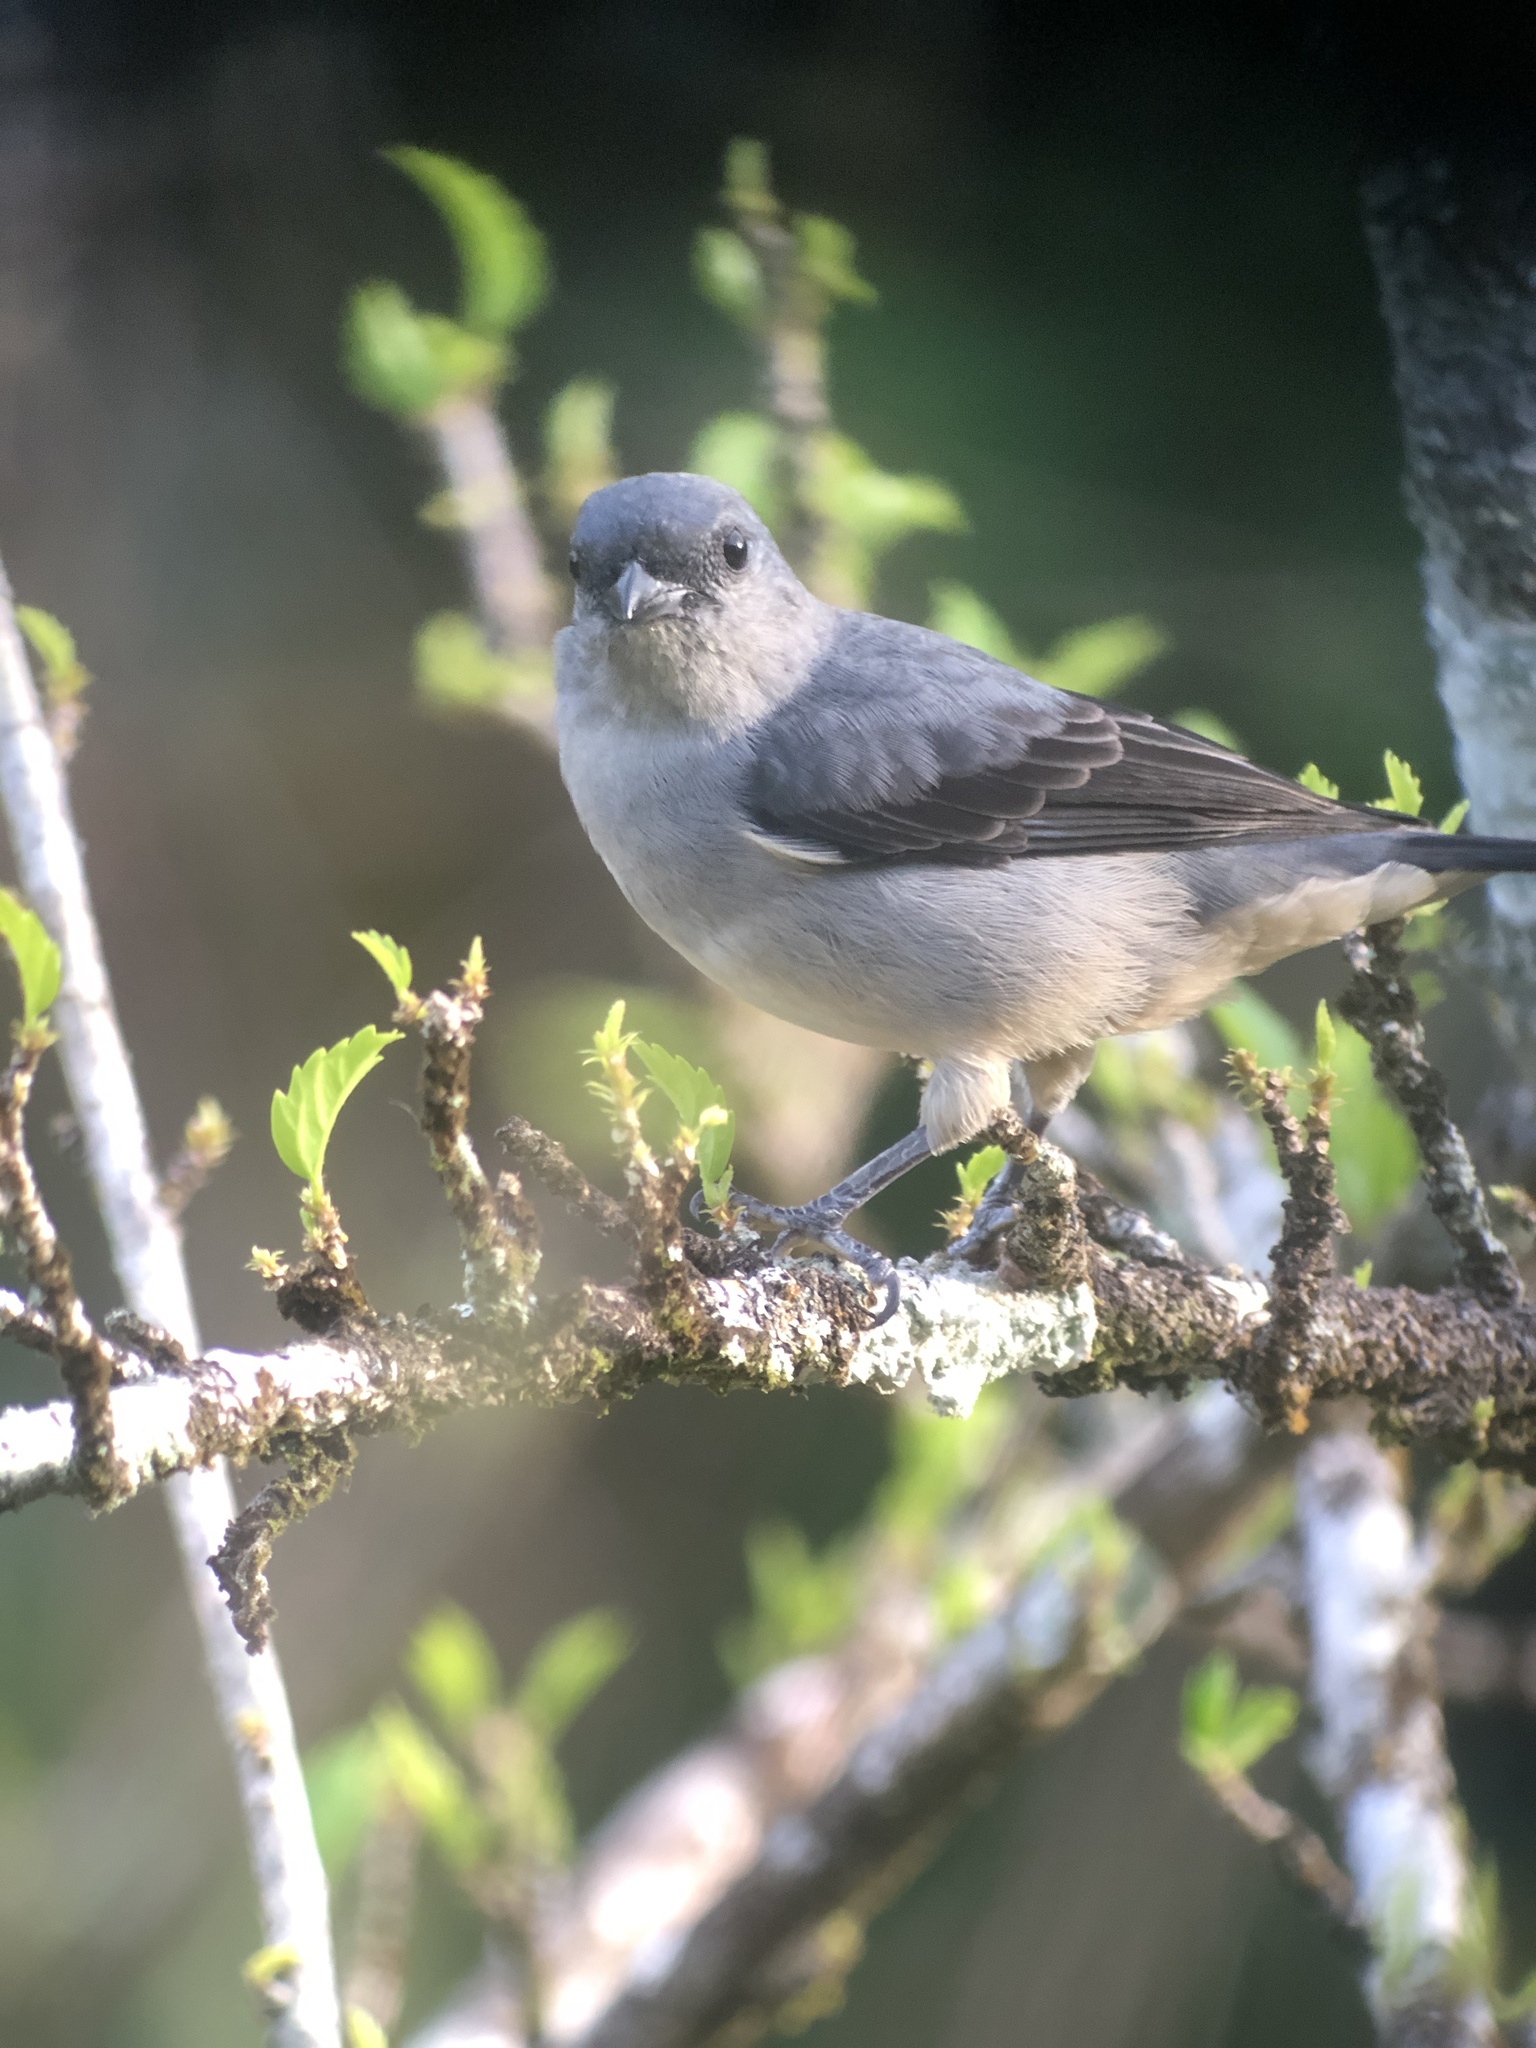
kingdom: Animalia
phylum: Chordata
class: Aves
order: Passeriformes
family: Thraupidae
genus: Tangara
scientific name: Tangara inornata
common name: Plain-colored tanager
